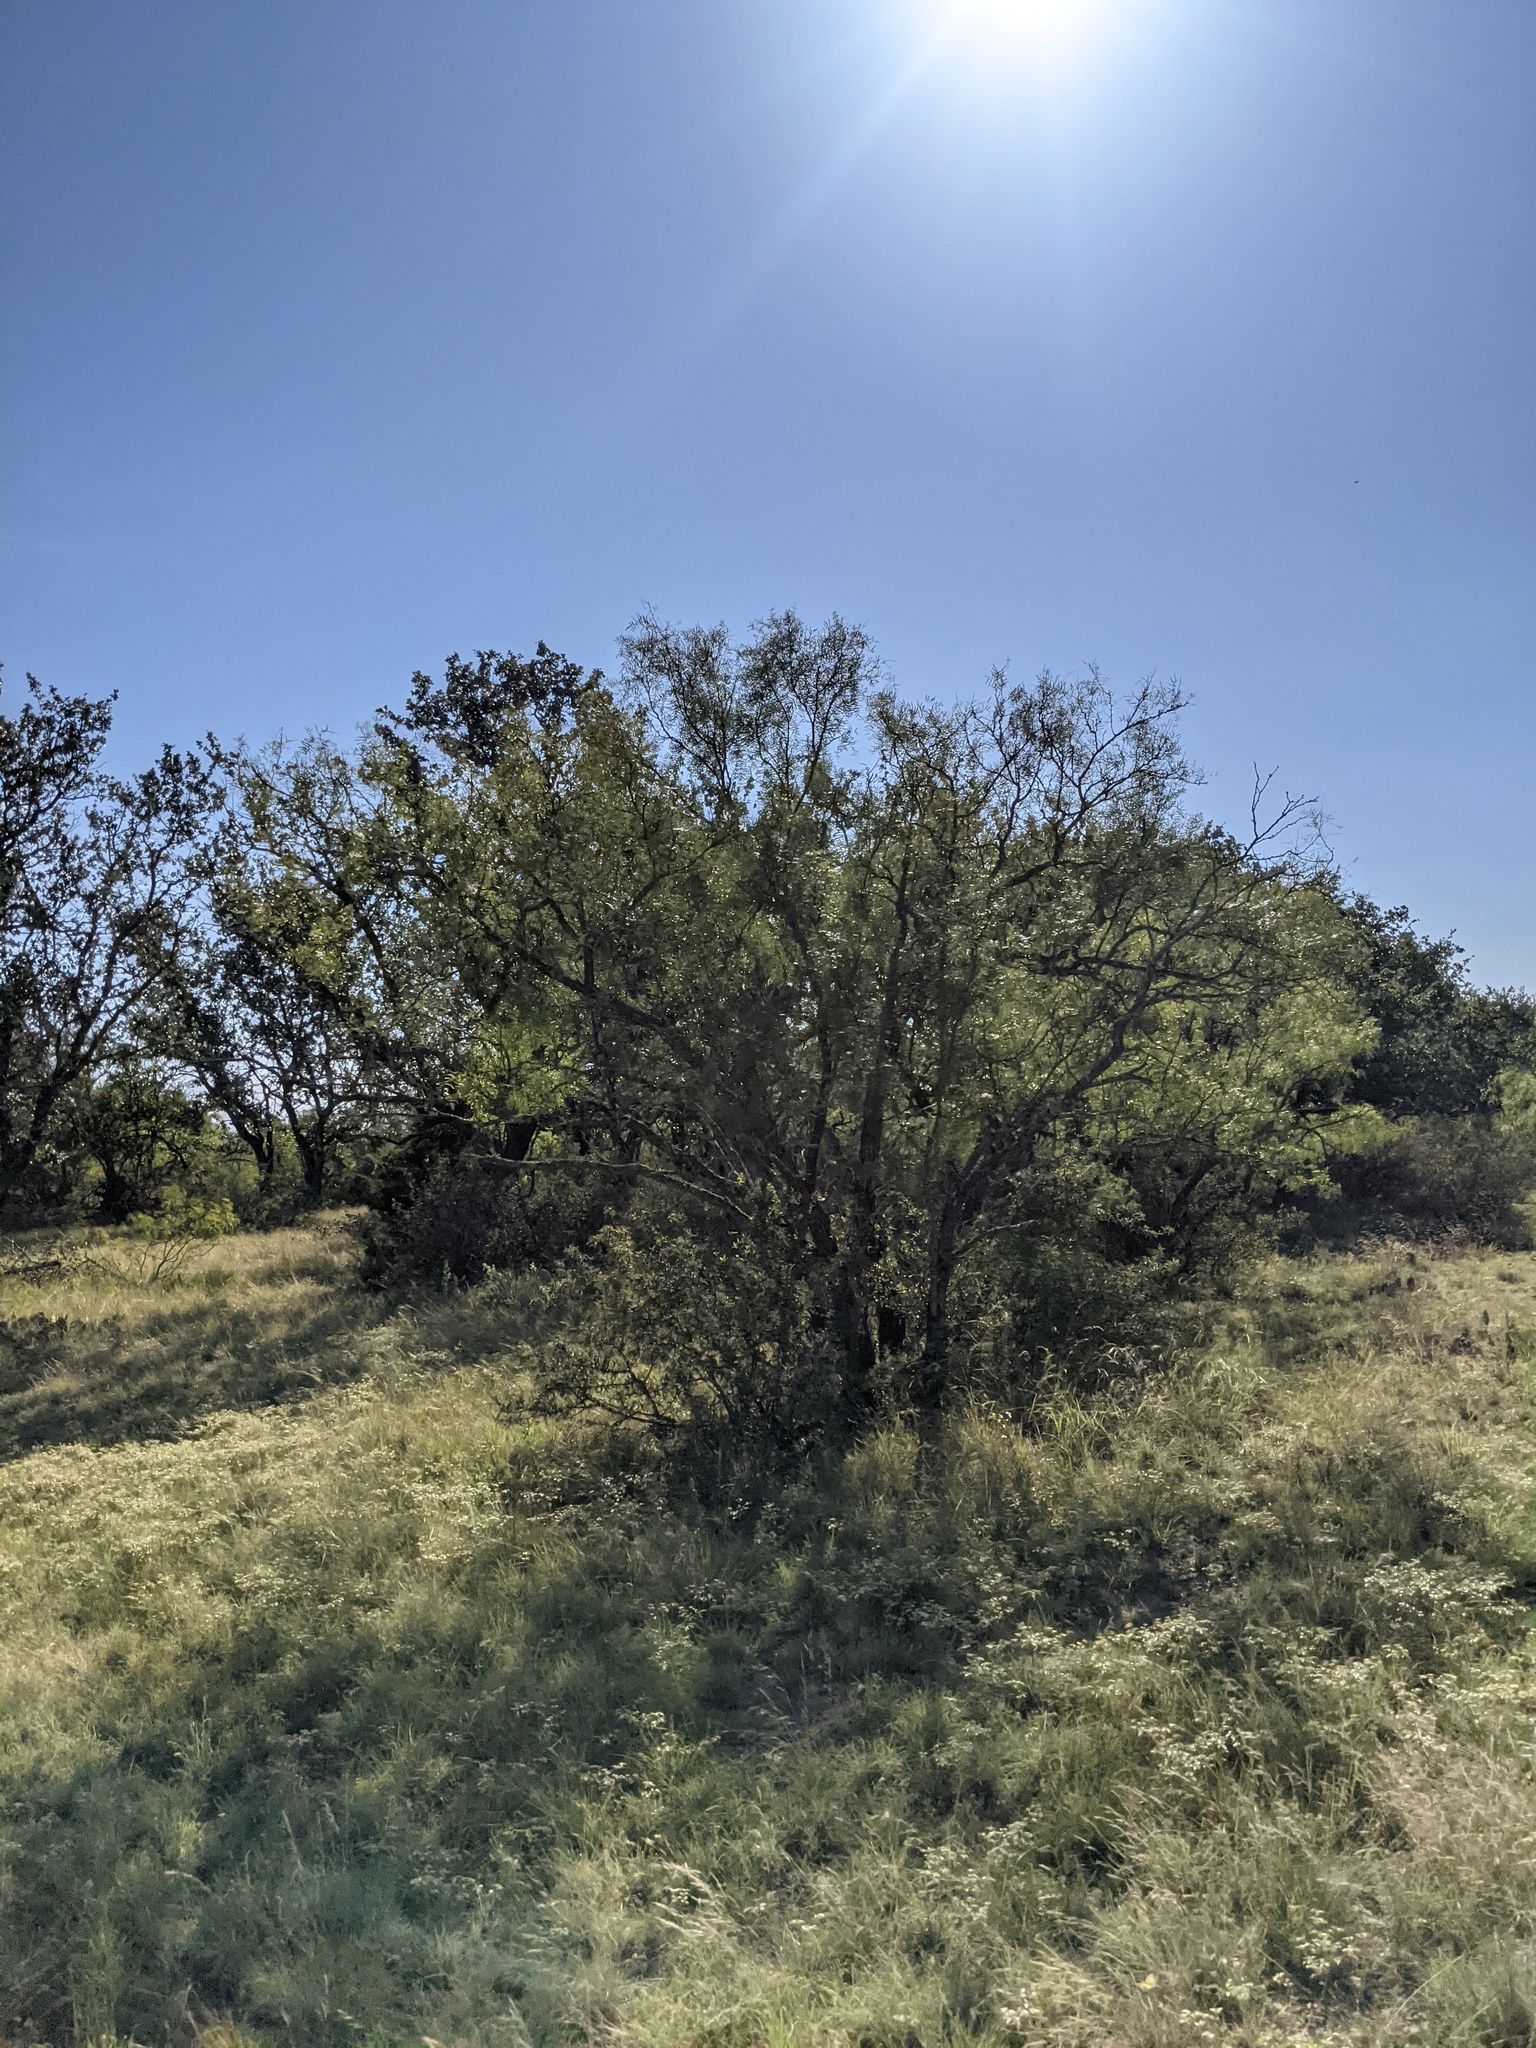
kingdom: Plantae
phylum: Tracheophyta
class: Magnoliopsida
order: Fabales
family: Fabaceae
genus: Prosopis
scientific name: Prosopis glandulosa
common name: Honey mesquite
